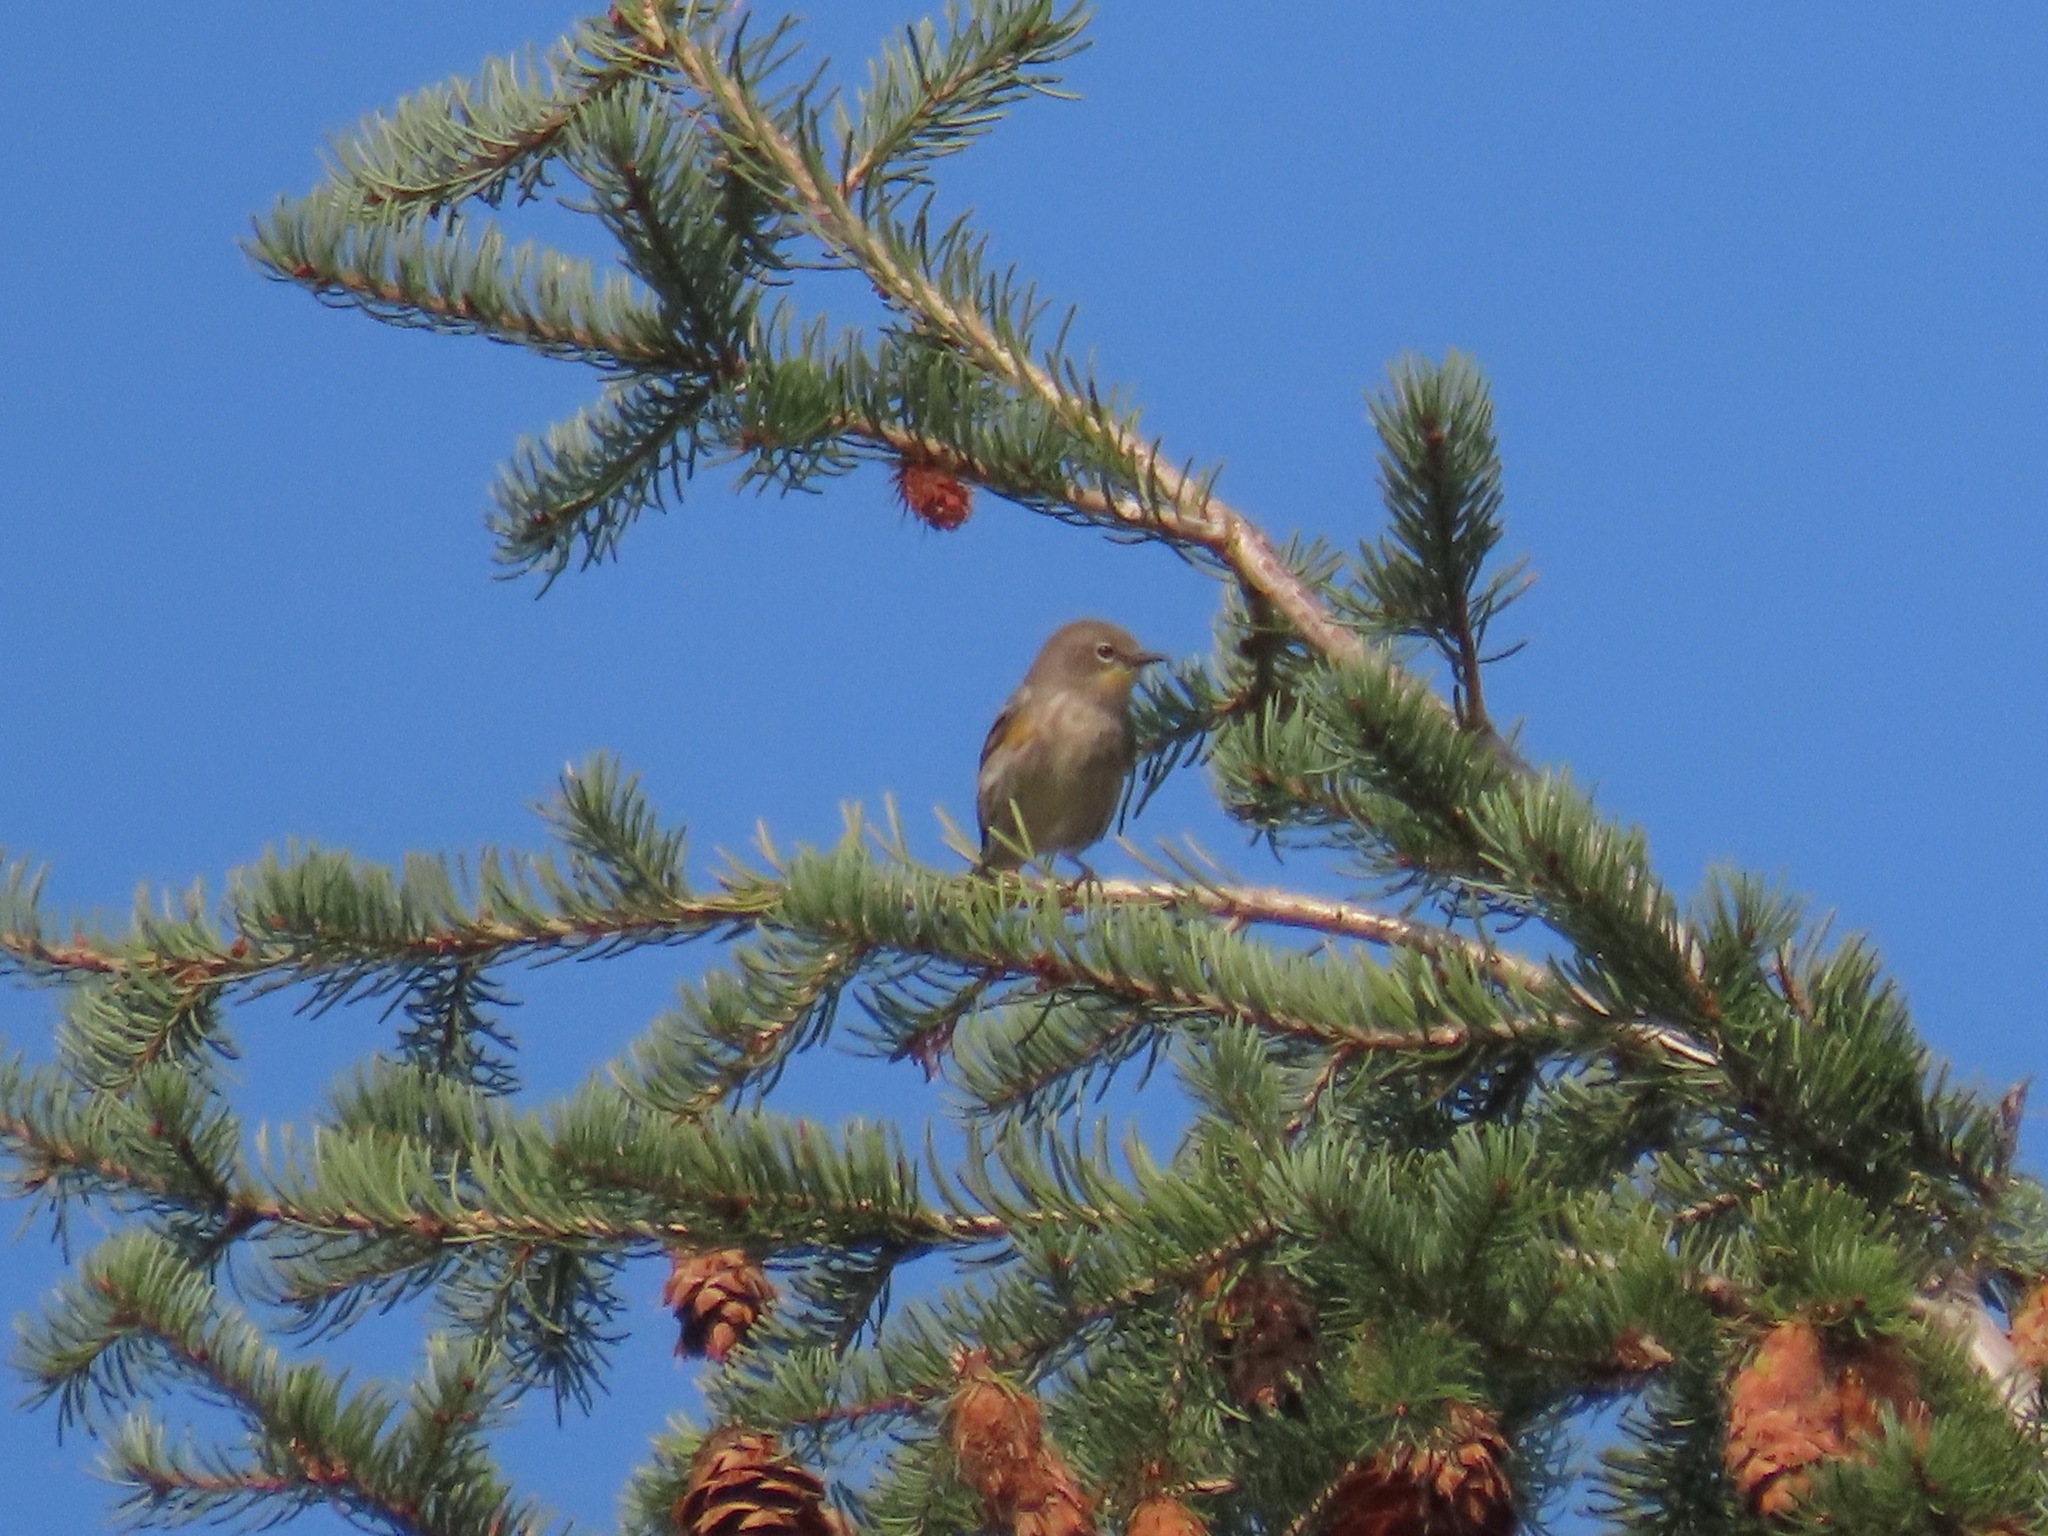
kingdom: Animalia
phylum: Chordata
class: Aves
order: Passeriformes
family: Parulidae
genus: Setophaga
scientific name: Setophaga coronata
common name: Myrtle warbler
